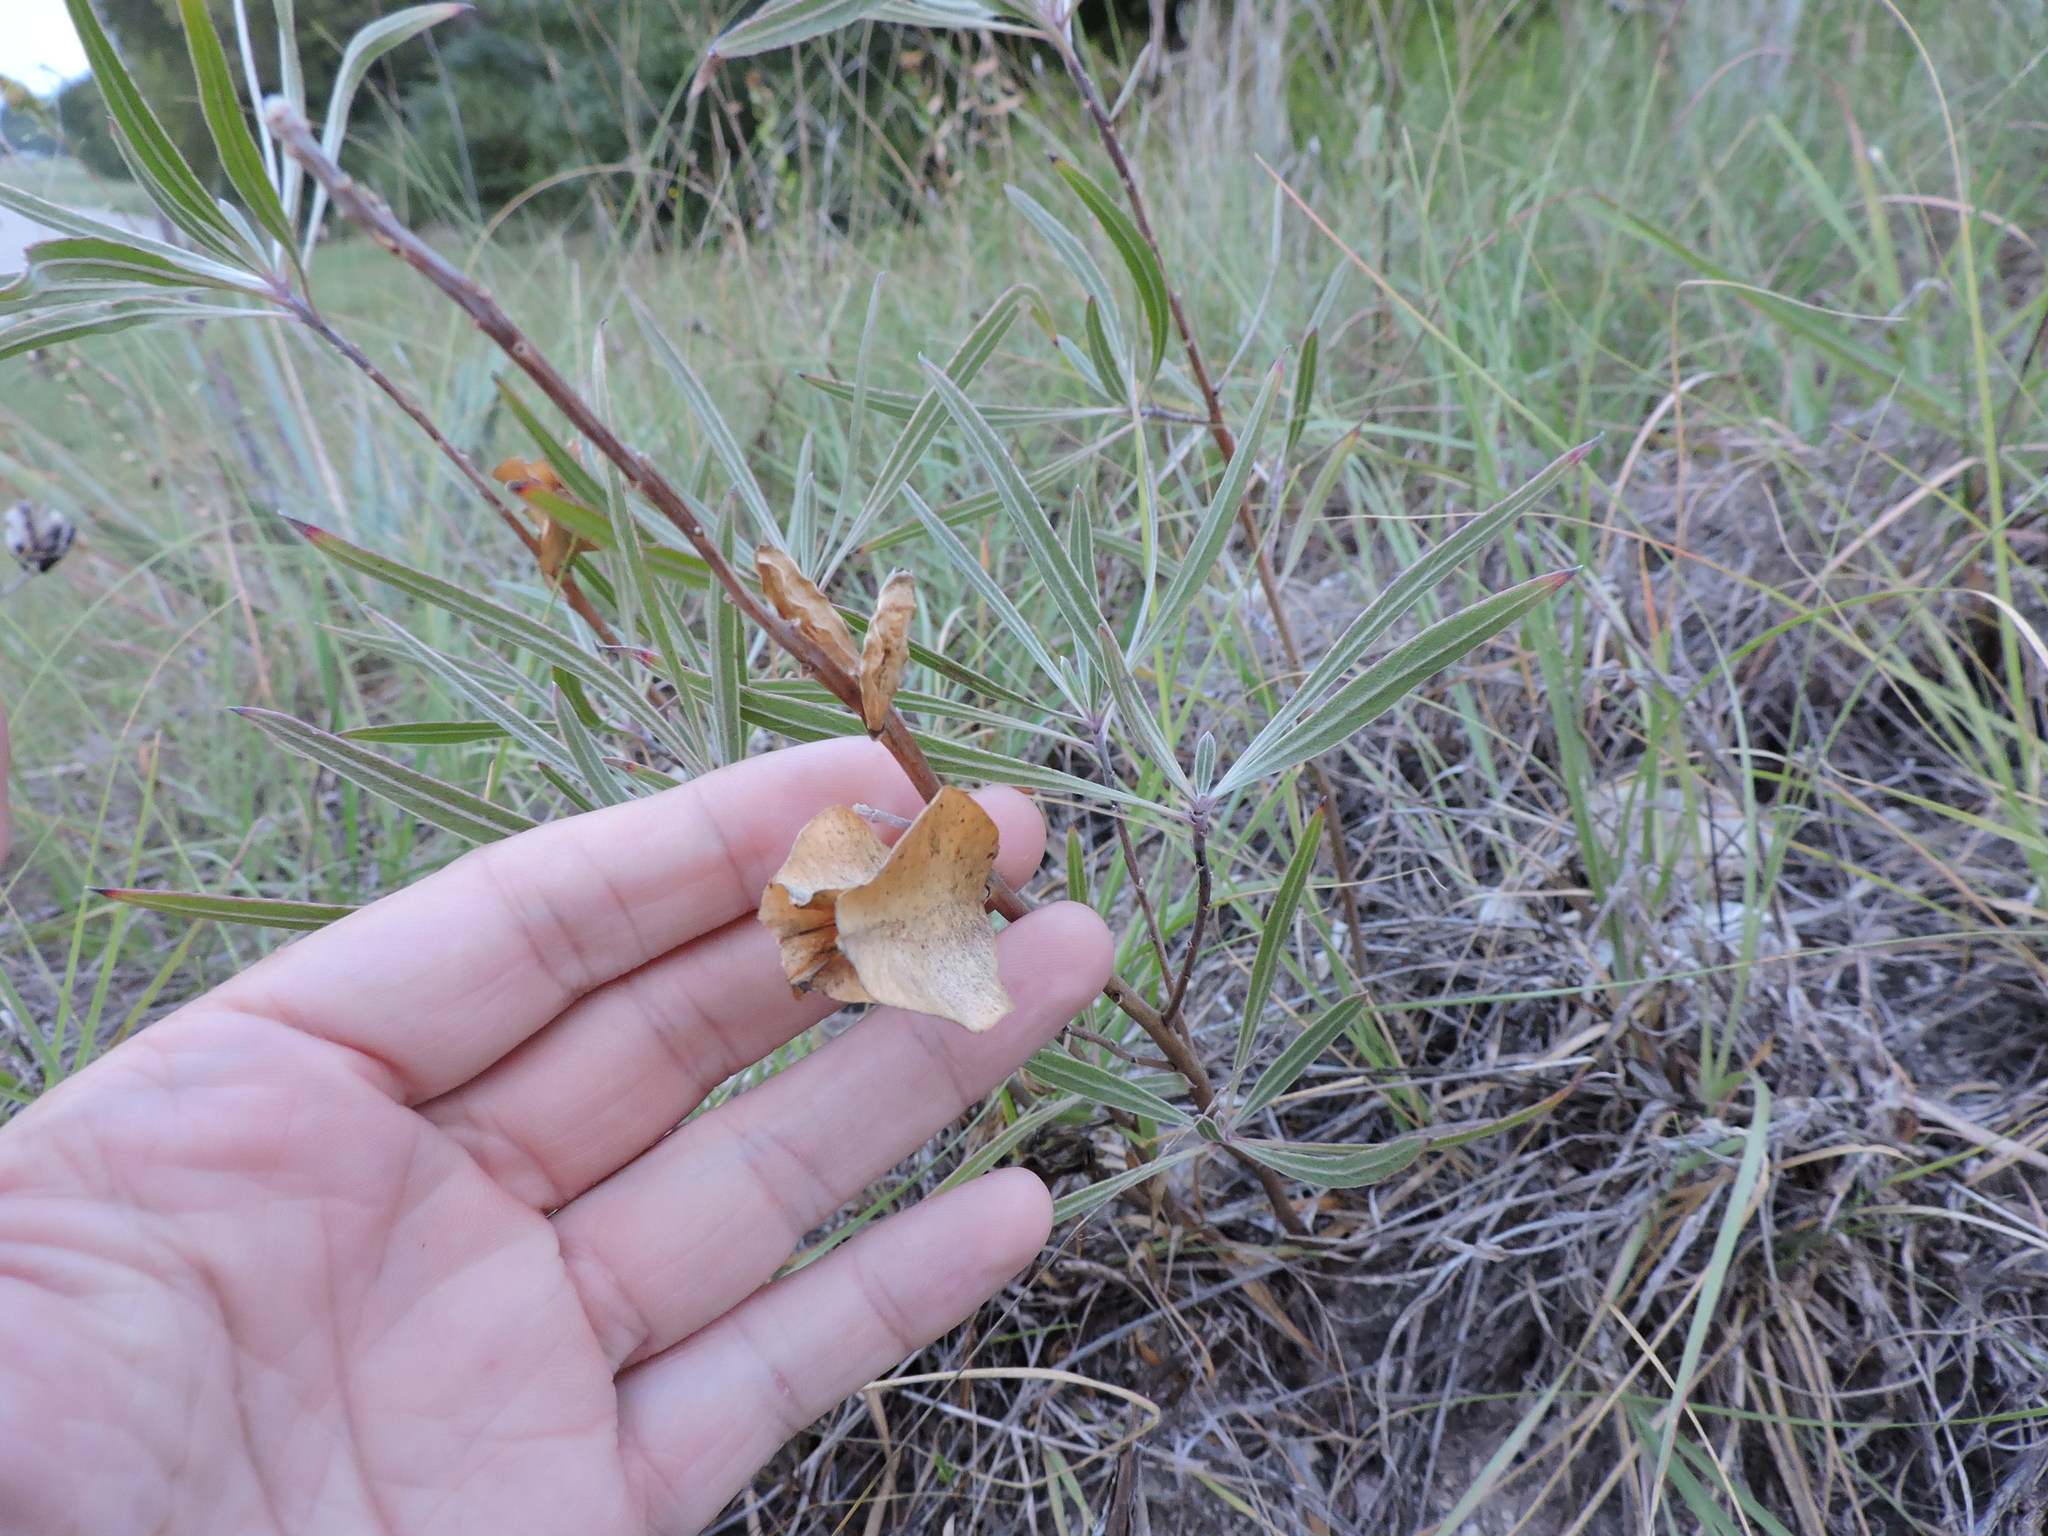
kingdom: Plantae
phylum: Tracheophyta
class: Magnoliopsida
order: Myrtales
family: Onagraceae
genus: Oenothera
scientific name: Oenothera macrocarpa
